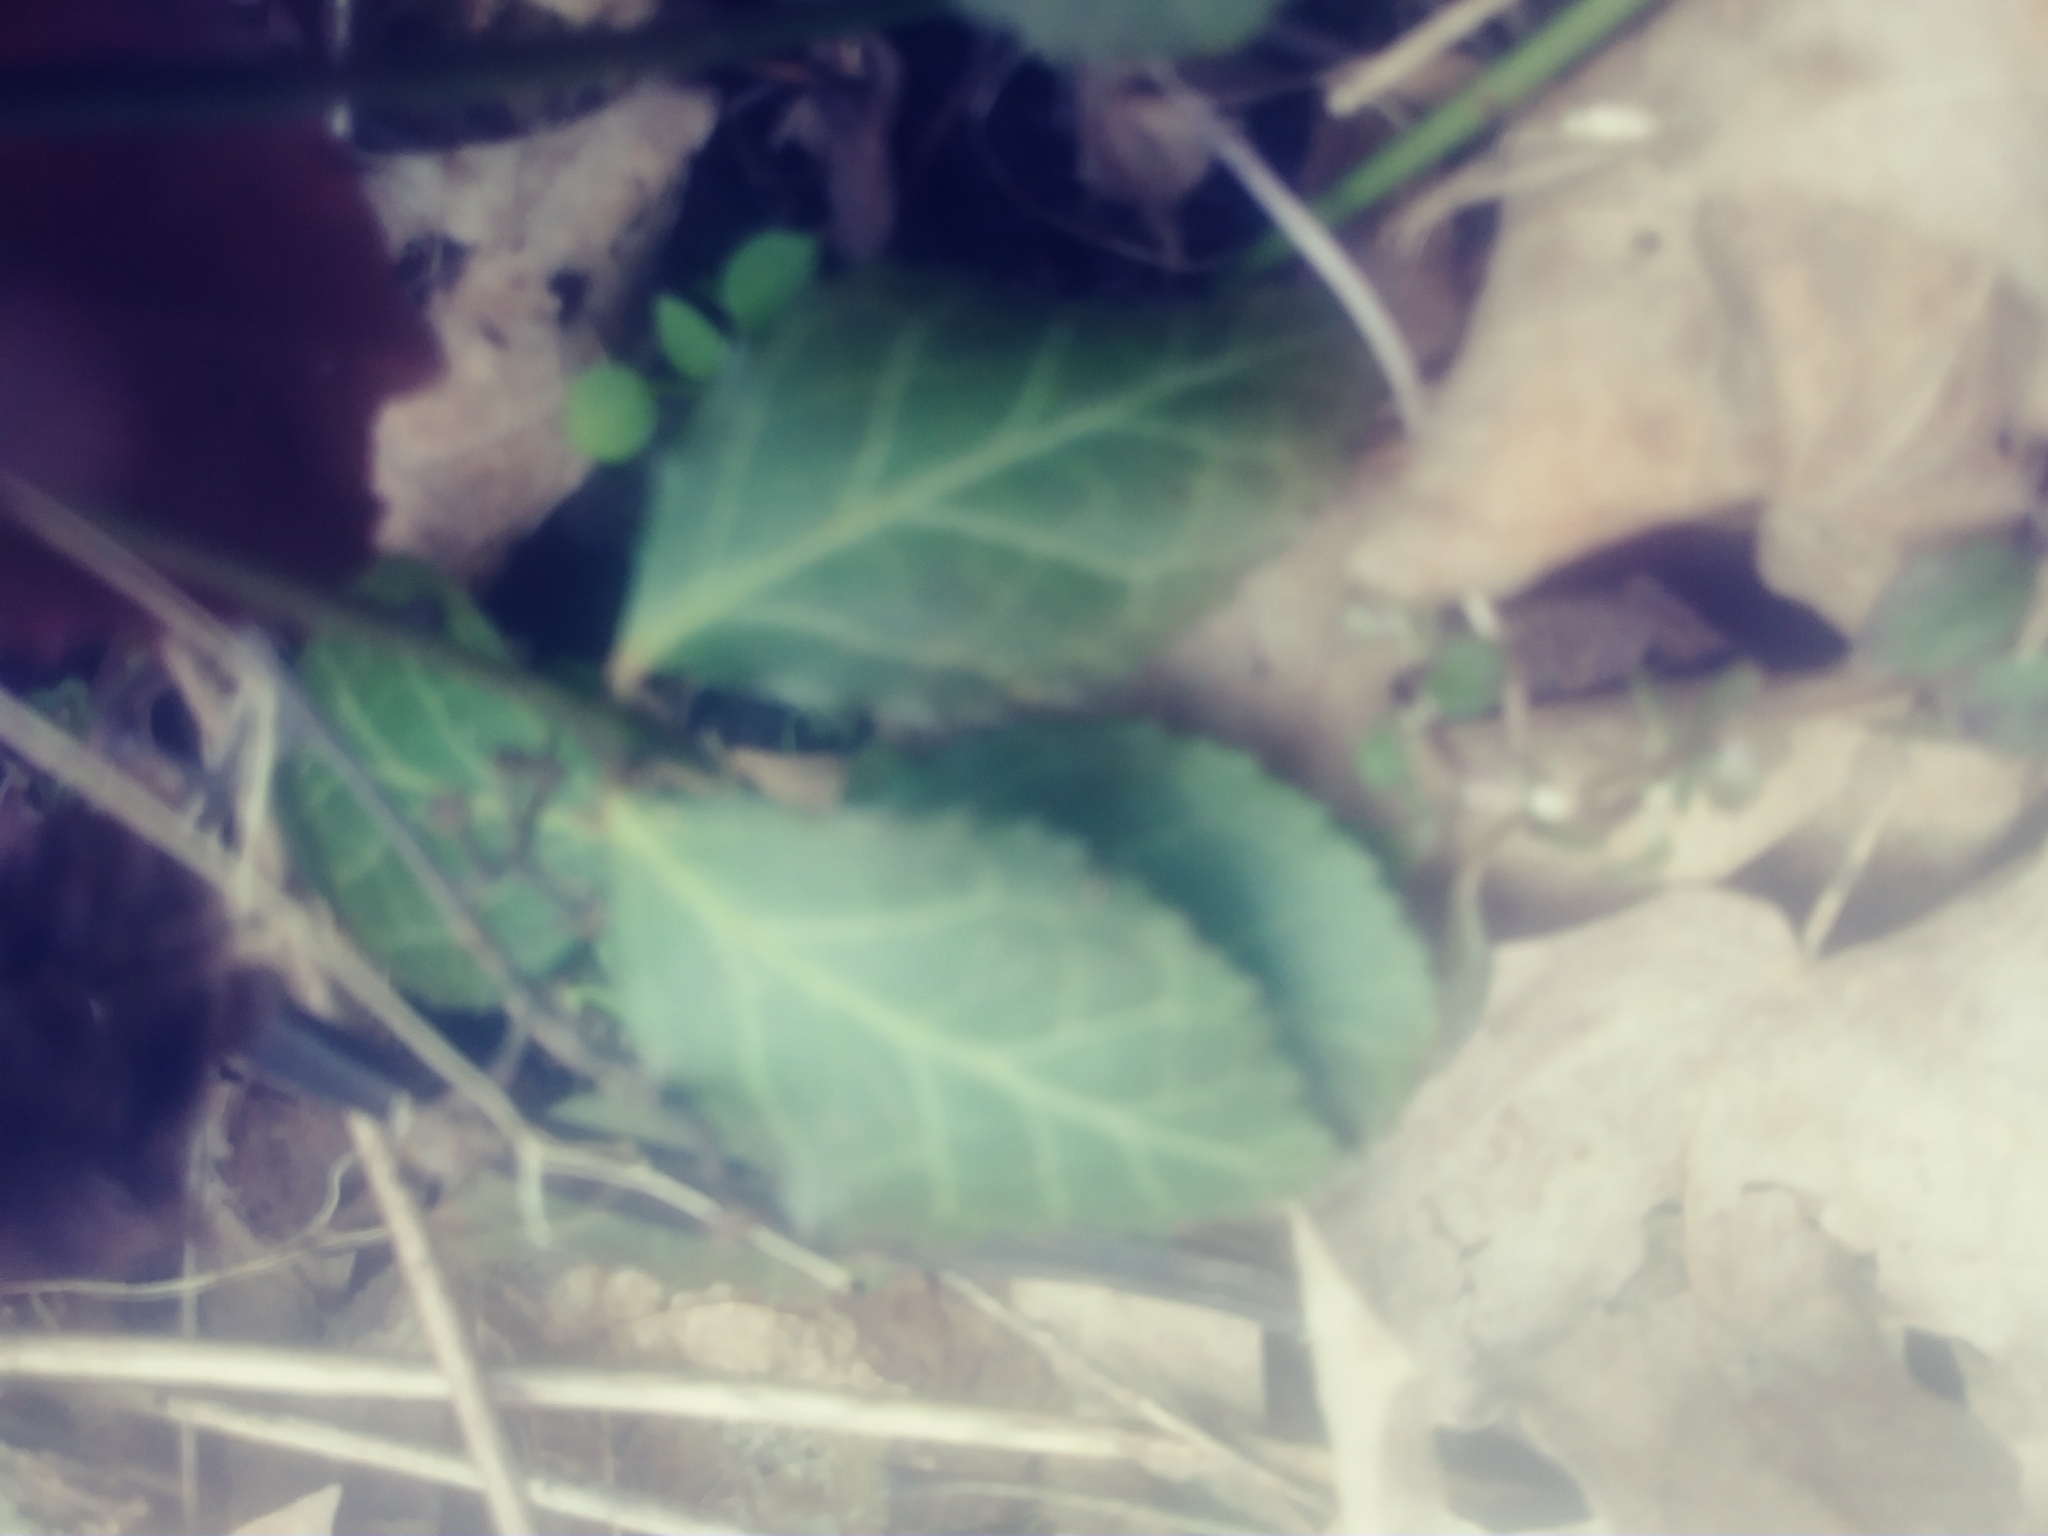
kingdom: Plantae
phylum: Tracheophyta
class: Magnoliopsida
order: Celastrales
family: Celastraceae
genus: Euonymus
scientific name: Euonymus fortunei
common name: Climbing euonymus
